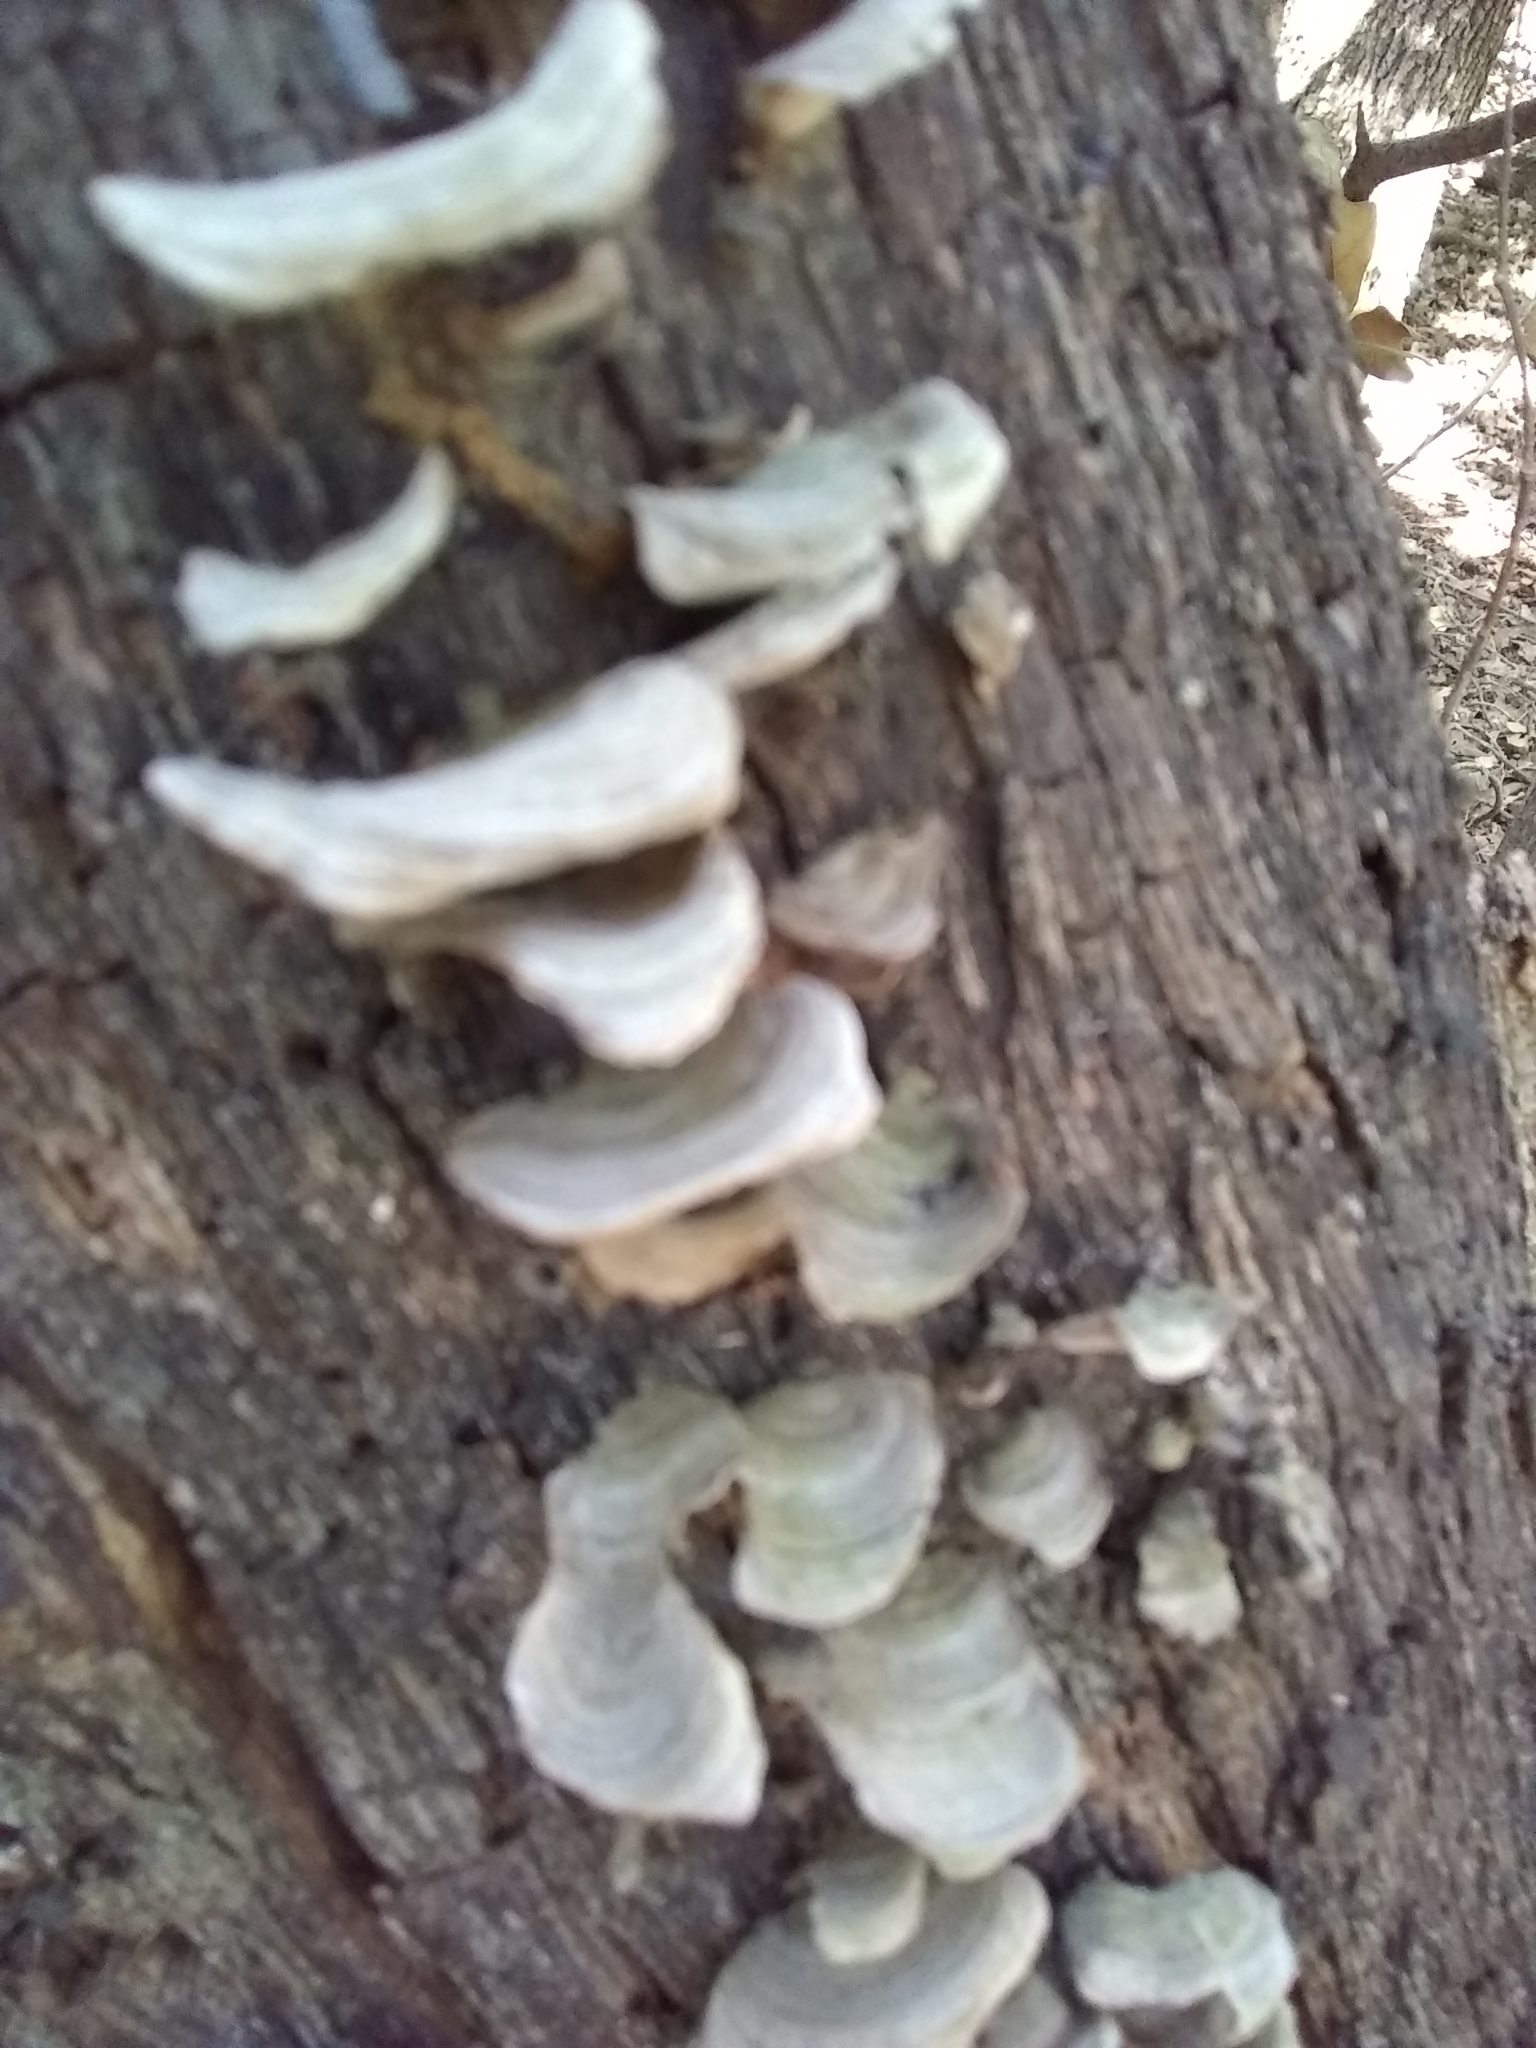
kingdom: Fungi
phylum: Basidiomycota
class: Agaricomycetes
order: Russulales
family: Stereaceae
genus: Stereum
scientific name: Stereum ostrea
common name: False turkeytail
